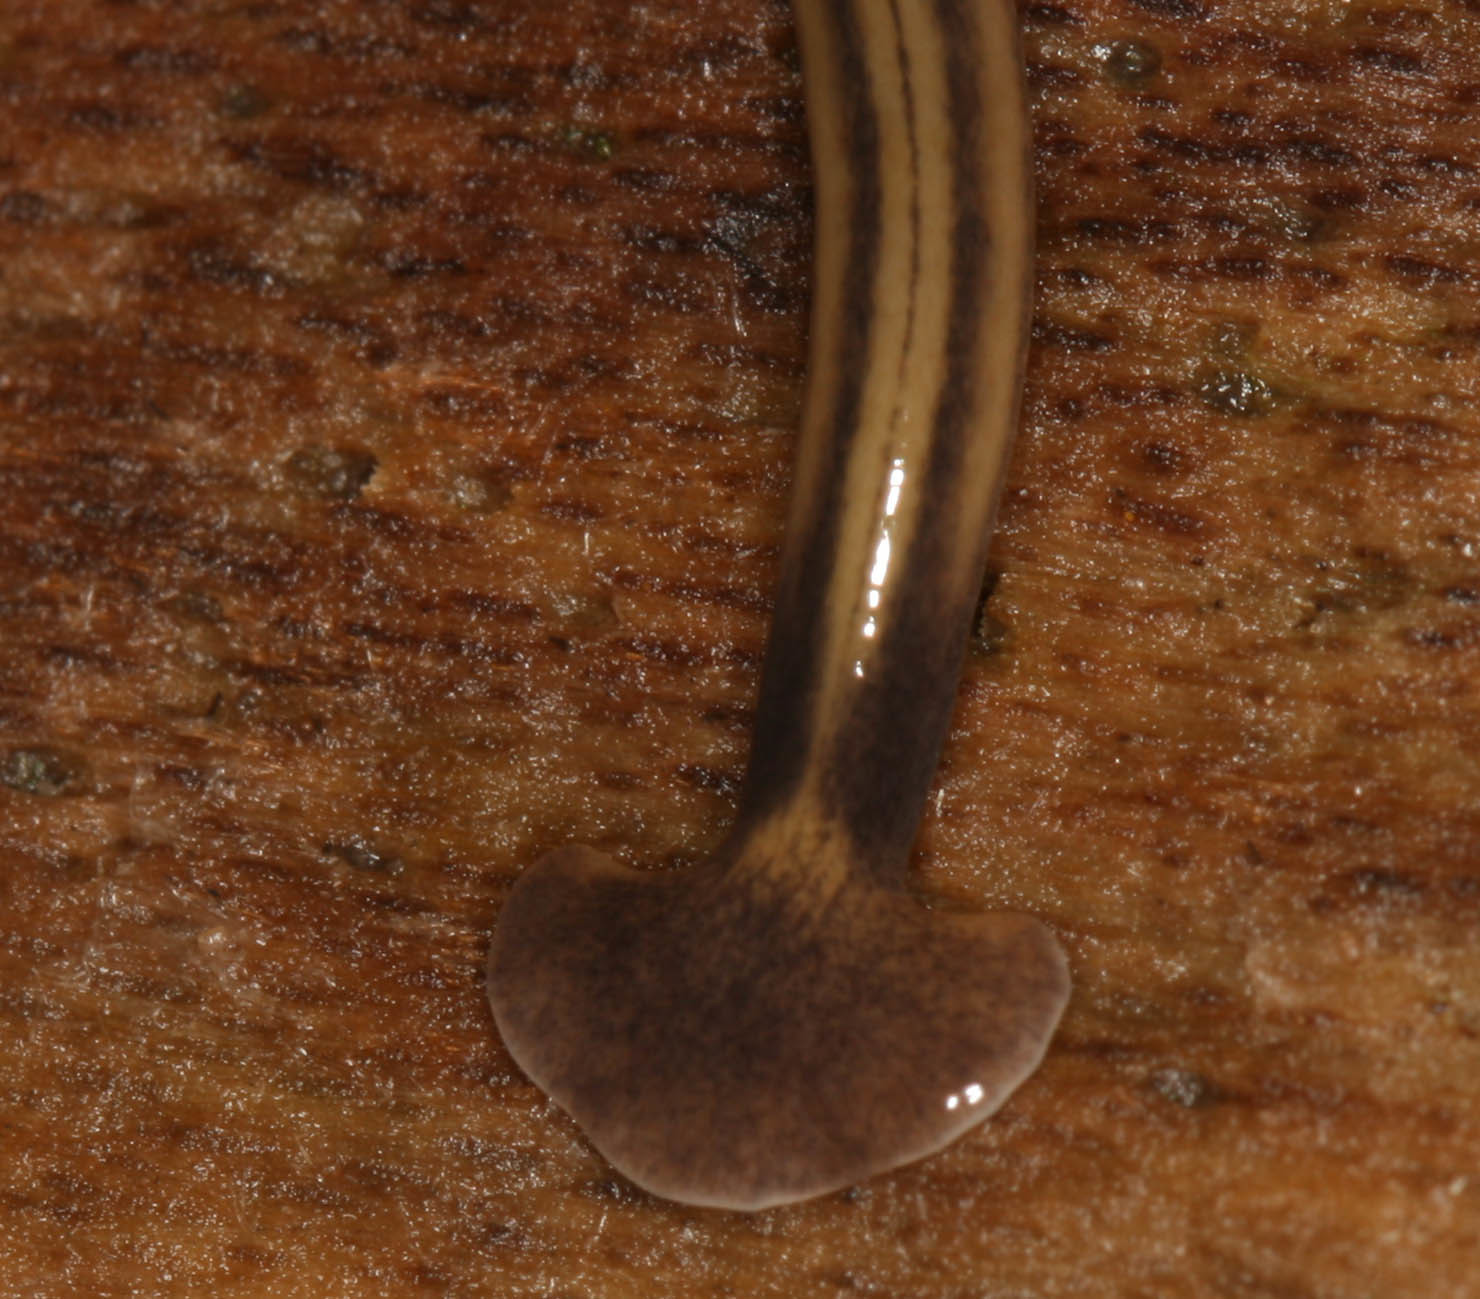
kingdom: Animalia
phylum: Platyhelminthes
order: Tricladida
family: Geoplanidae
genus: Bipalium
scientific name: Bipalium kewense
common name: Hammerhead flatworm
